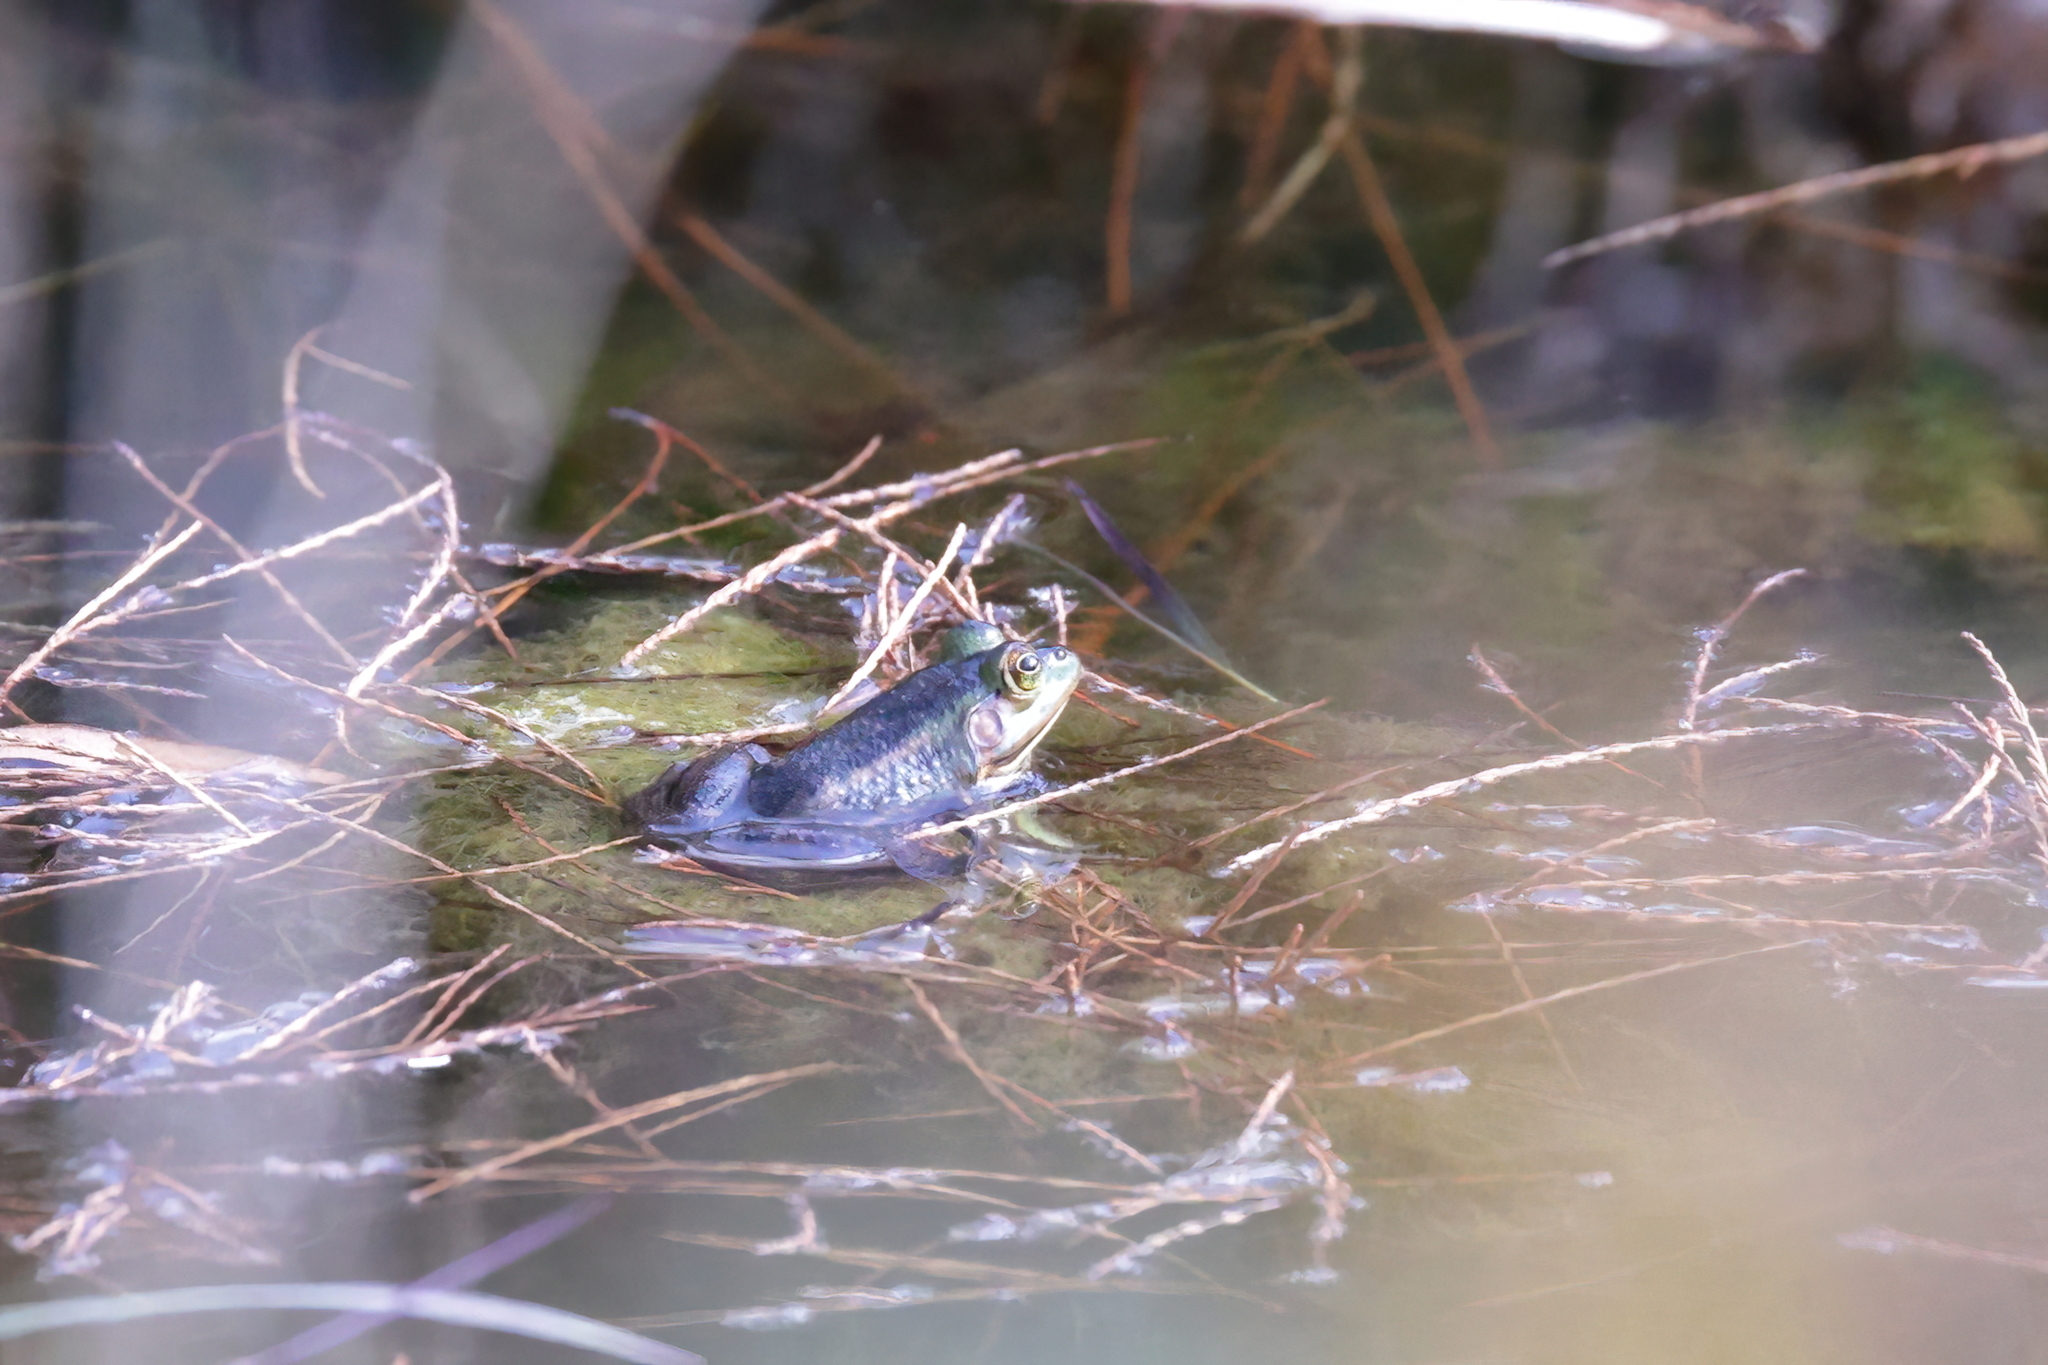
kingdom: Animalia
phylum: Chordata
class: Amphibia
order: Anura
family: Ranidae
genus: Lithobates
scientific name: Lithobates grylio
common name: Pig frog
